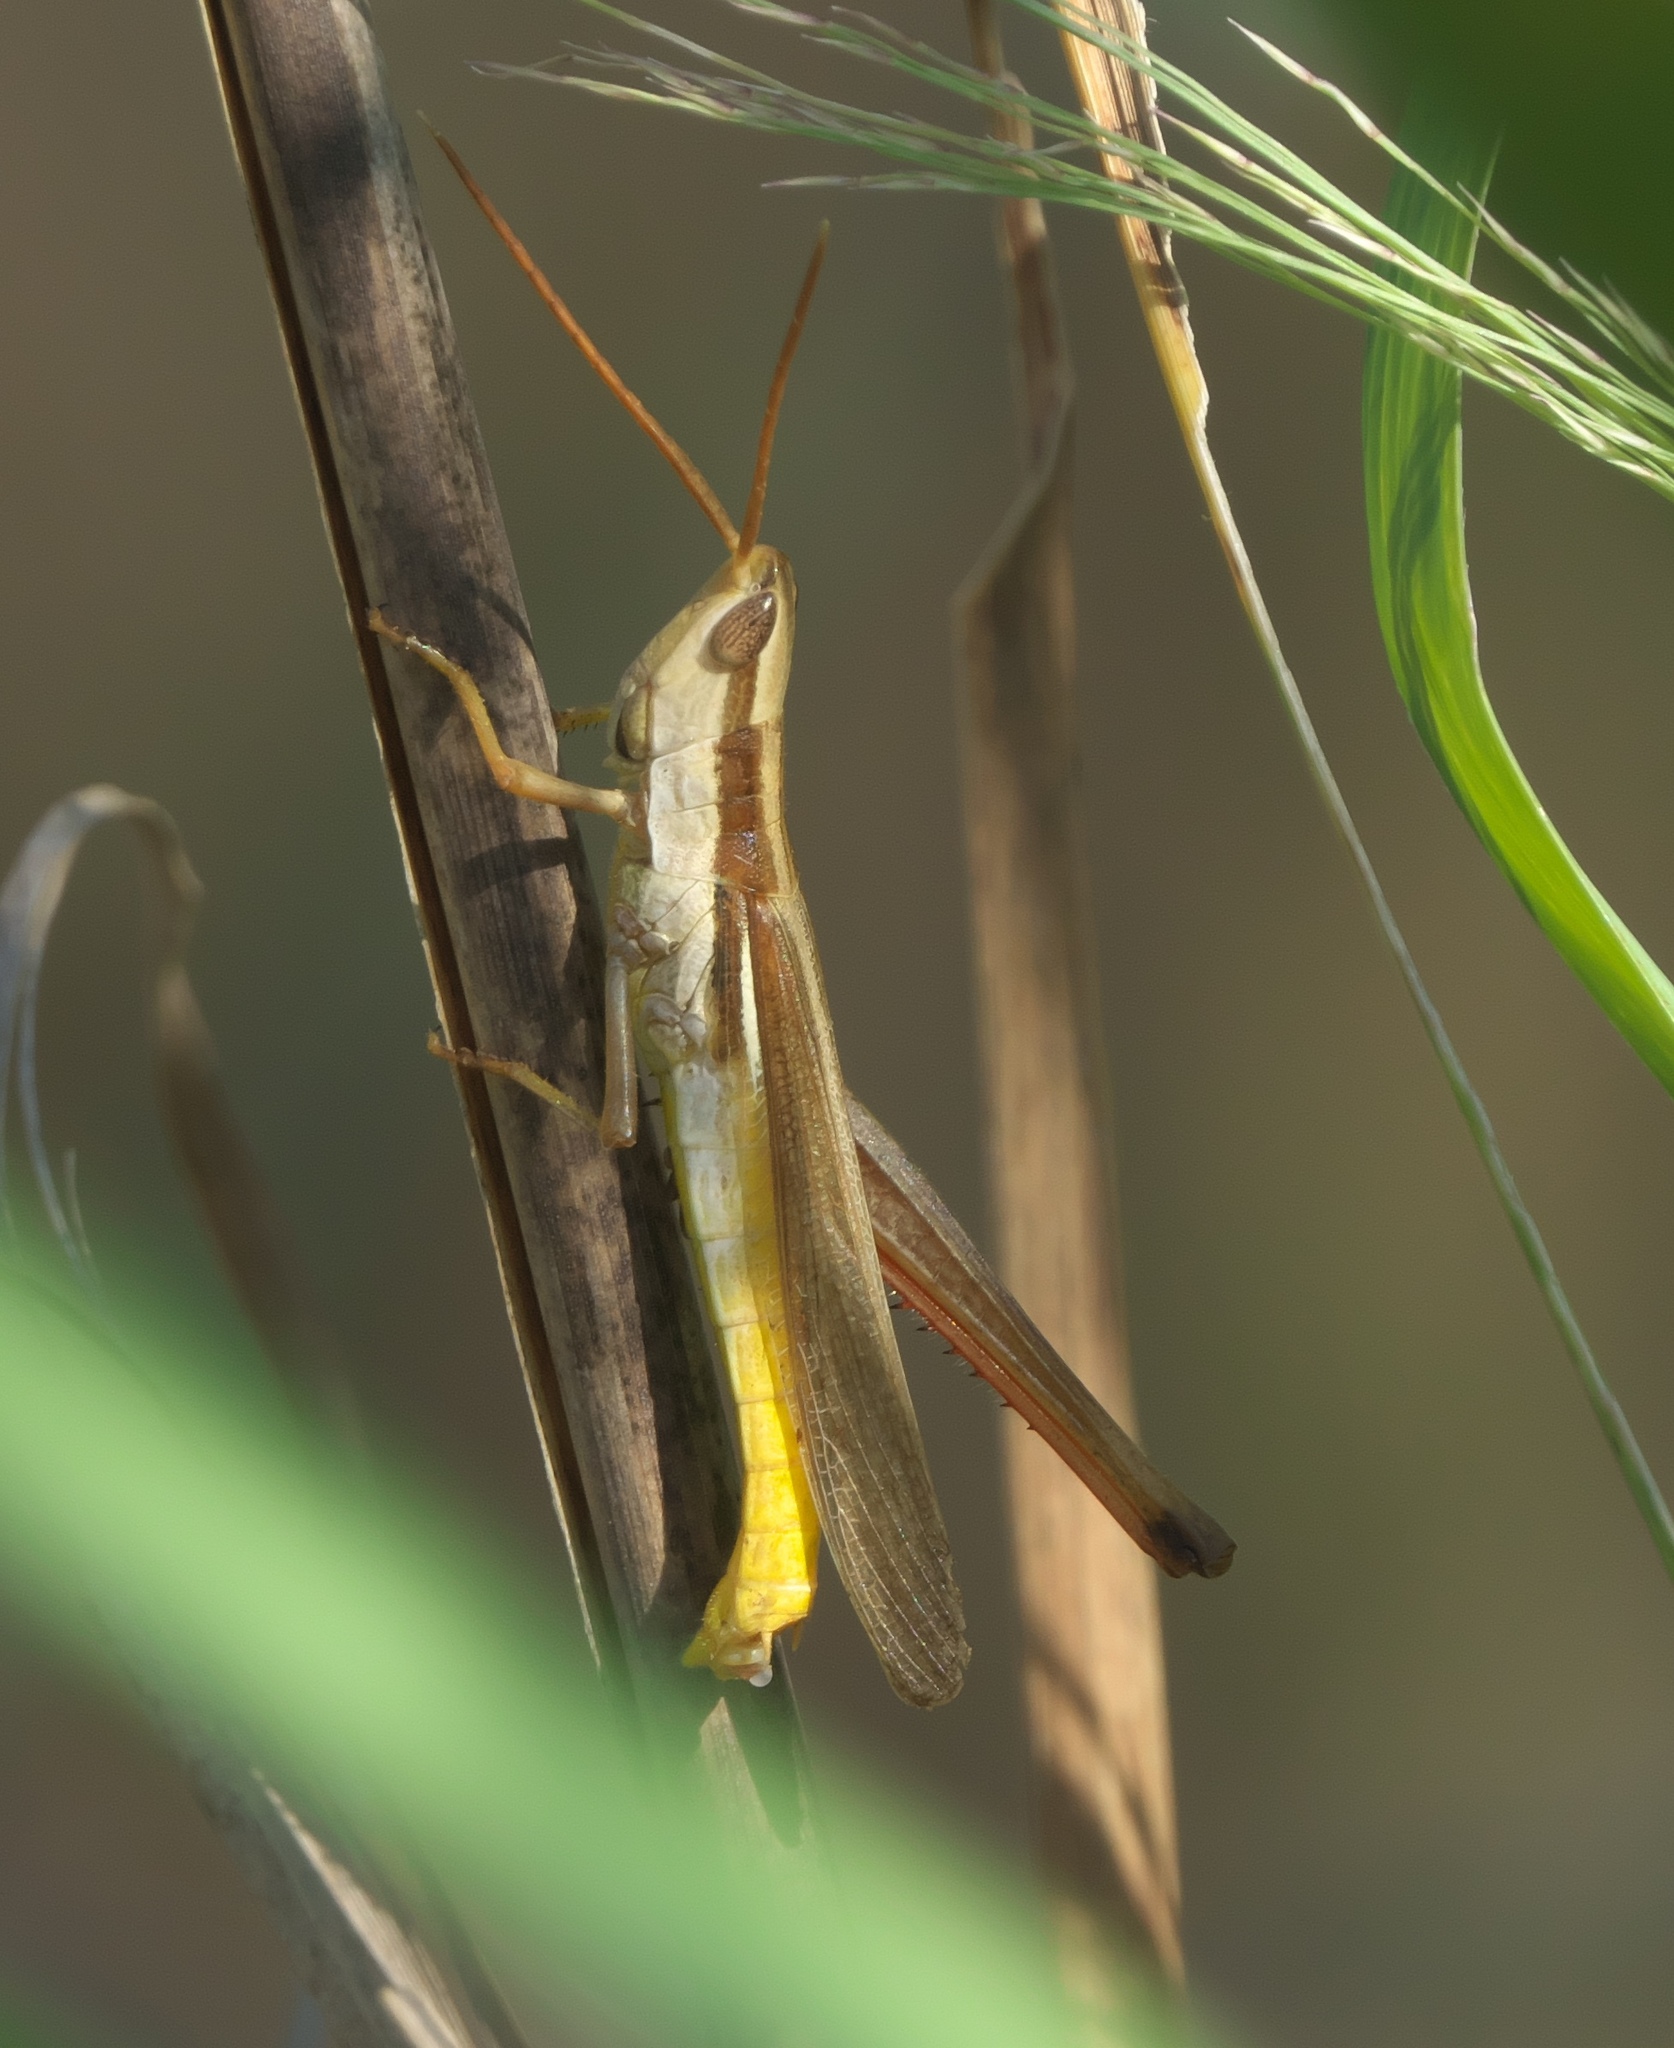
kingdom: Animalia
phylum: Arthropoda
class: Insecta
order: Orthoptera
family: Acrididae
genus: Mermiria
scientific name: Mermiria bivittata
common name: Two-striped mermiria grasshopper
